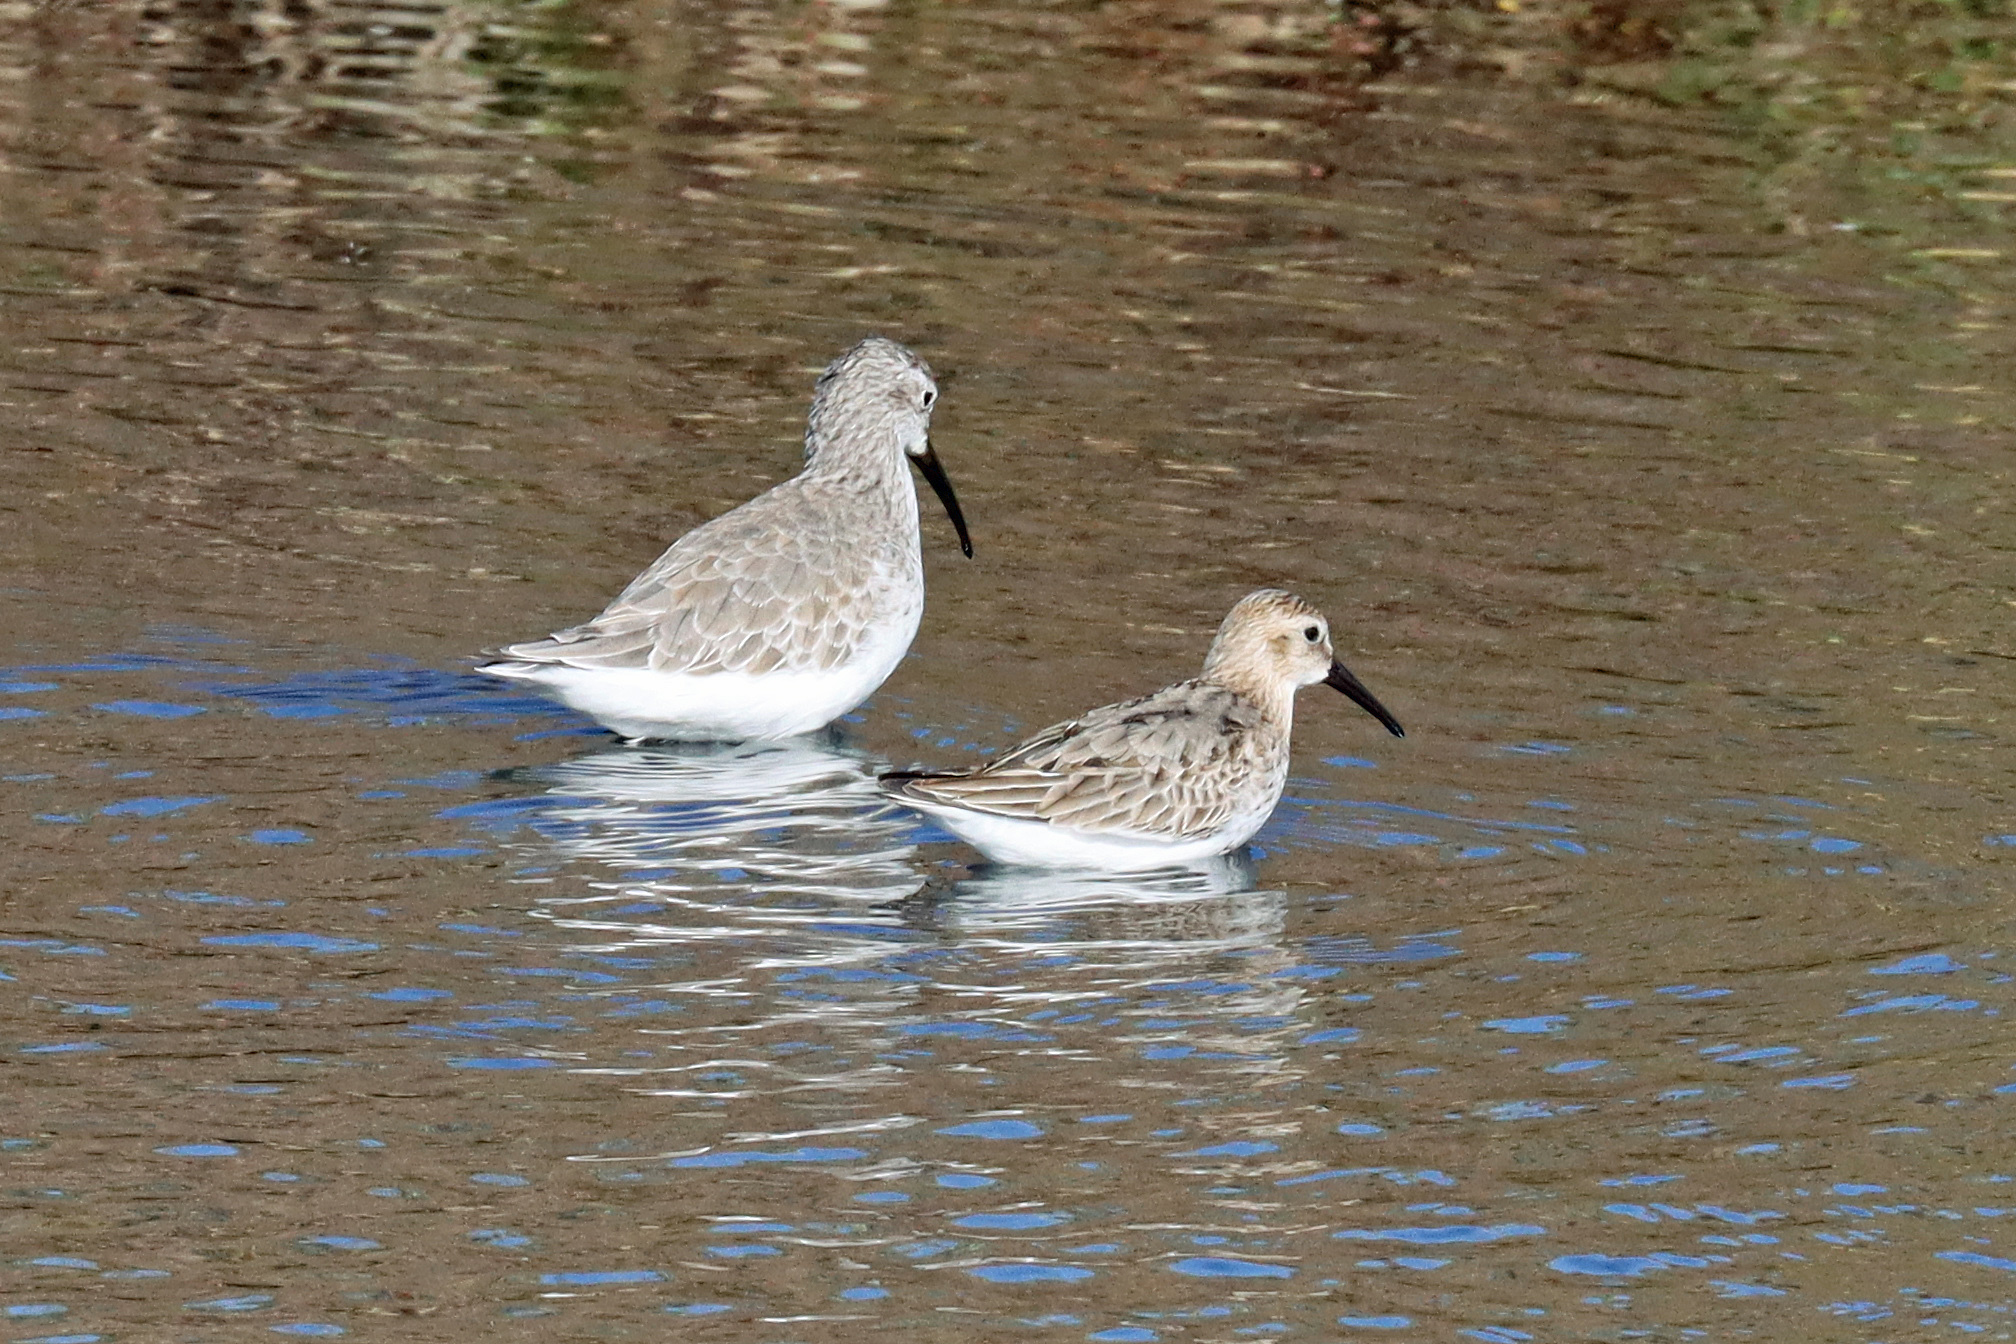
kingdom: Animalia
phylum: Chordata
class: Aves
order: Charadriiformes
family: Scolopacidae
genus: Calidris
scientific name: Calidris ferruginea
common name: Curlew sandpiper
